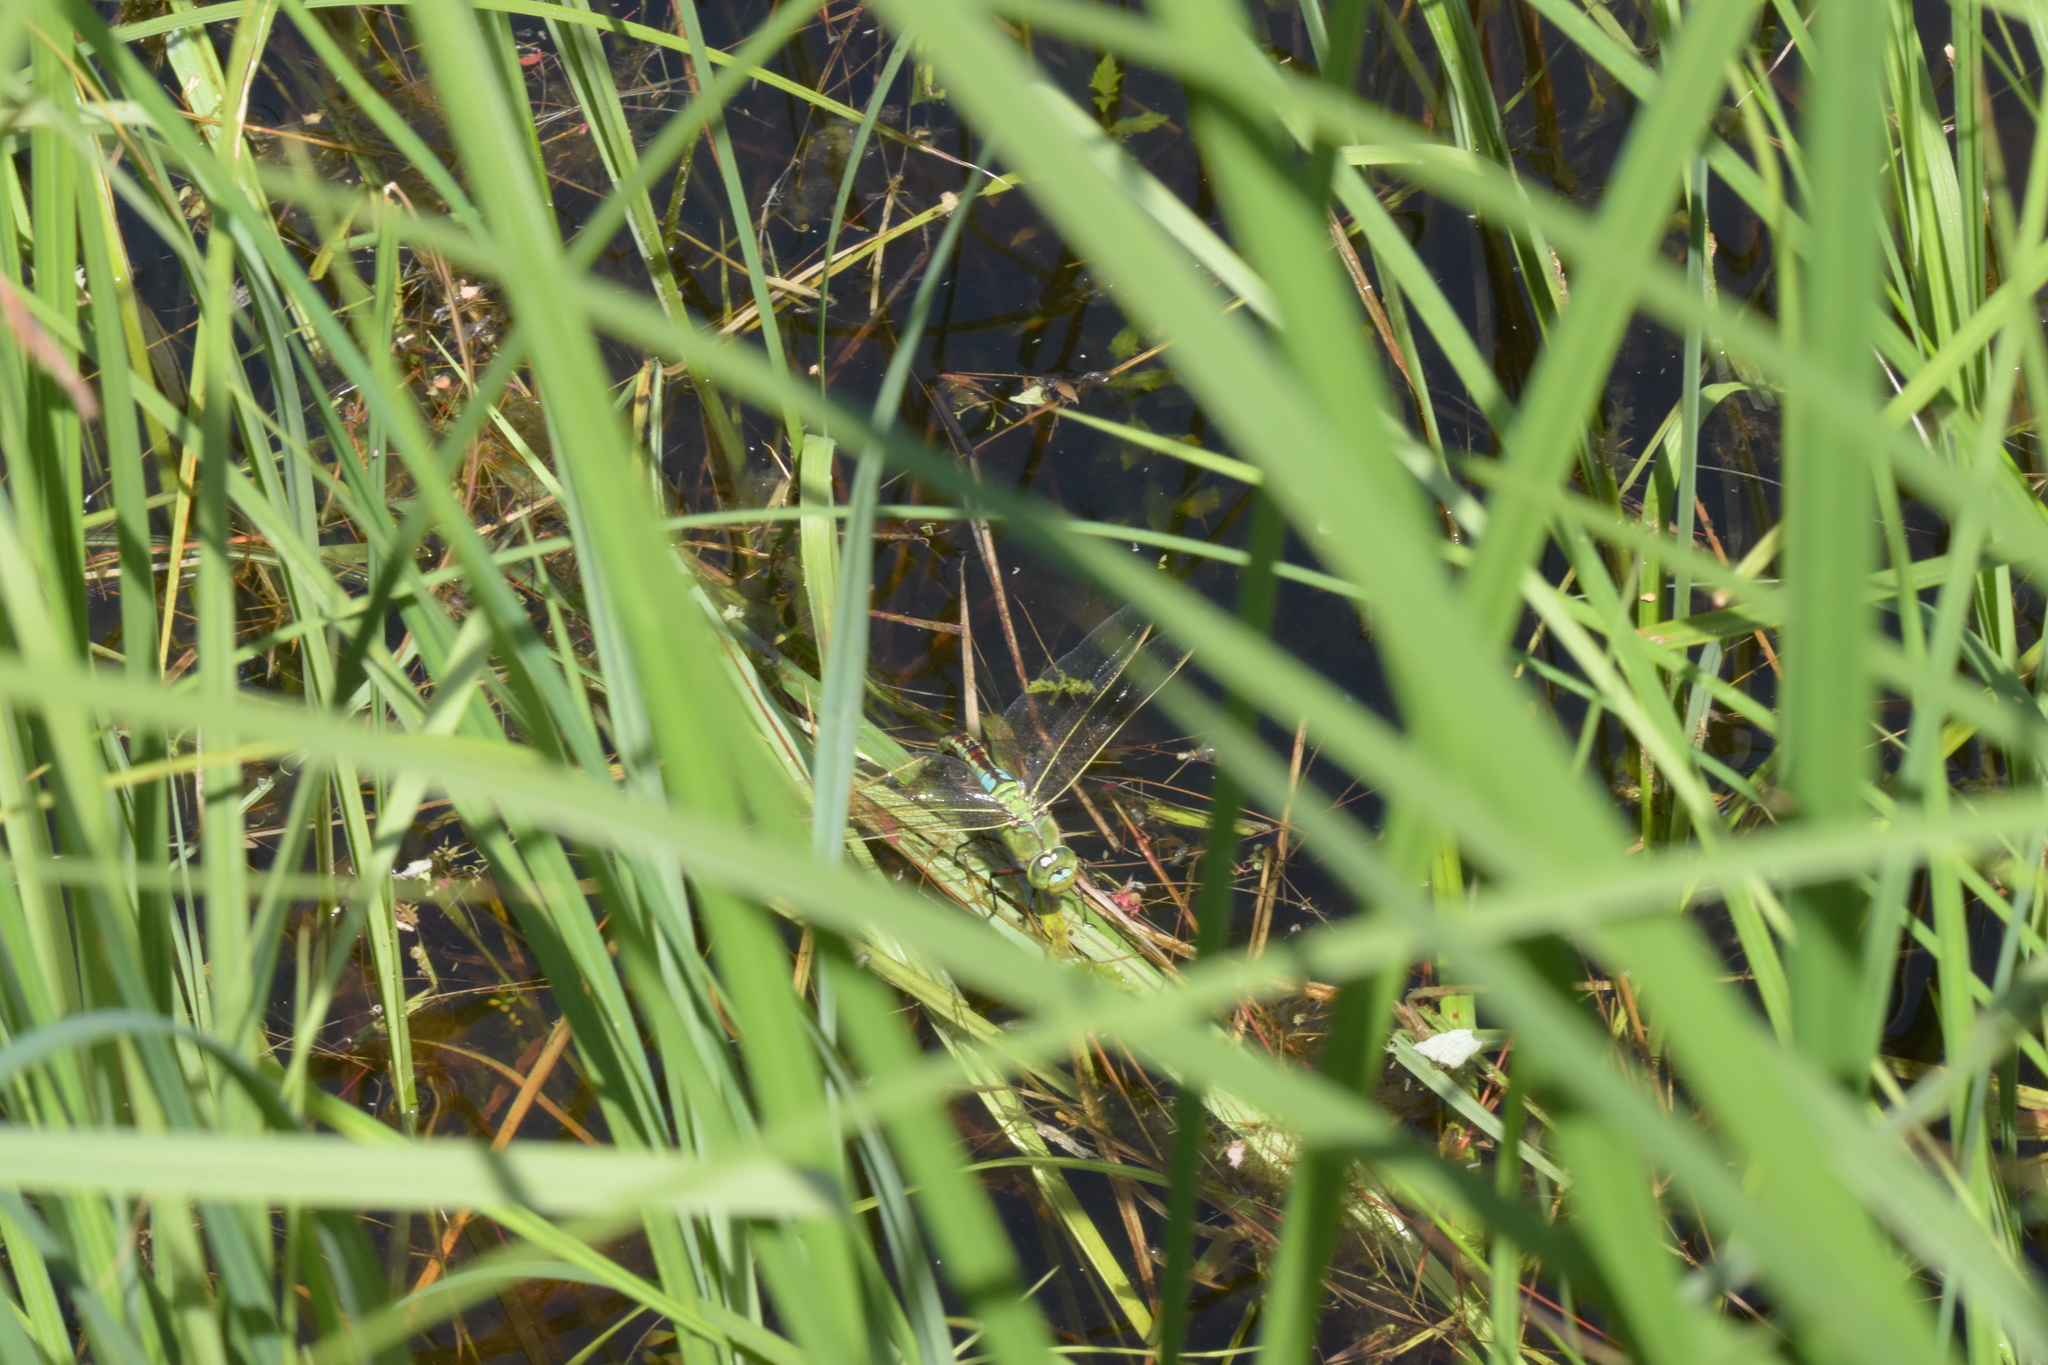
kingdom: Animalia
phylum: Arthropoda
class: Insecta
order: Odonata
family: Aeshnidae
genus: Anax
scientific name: Anax imperator
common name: Emperor dragonfly
